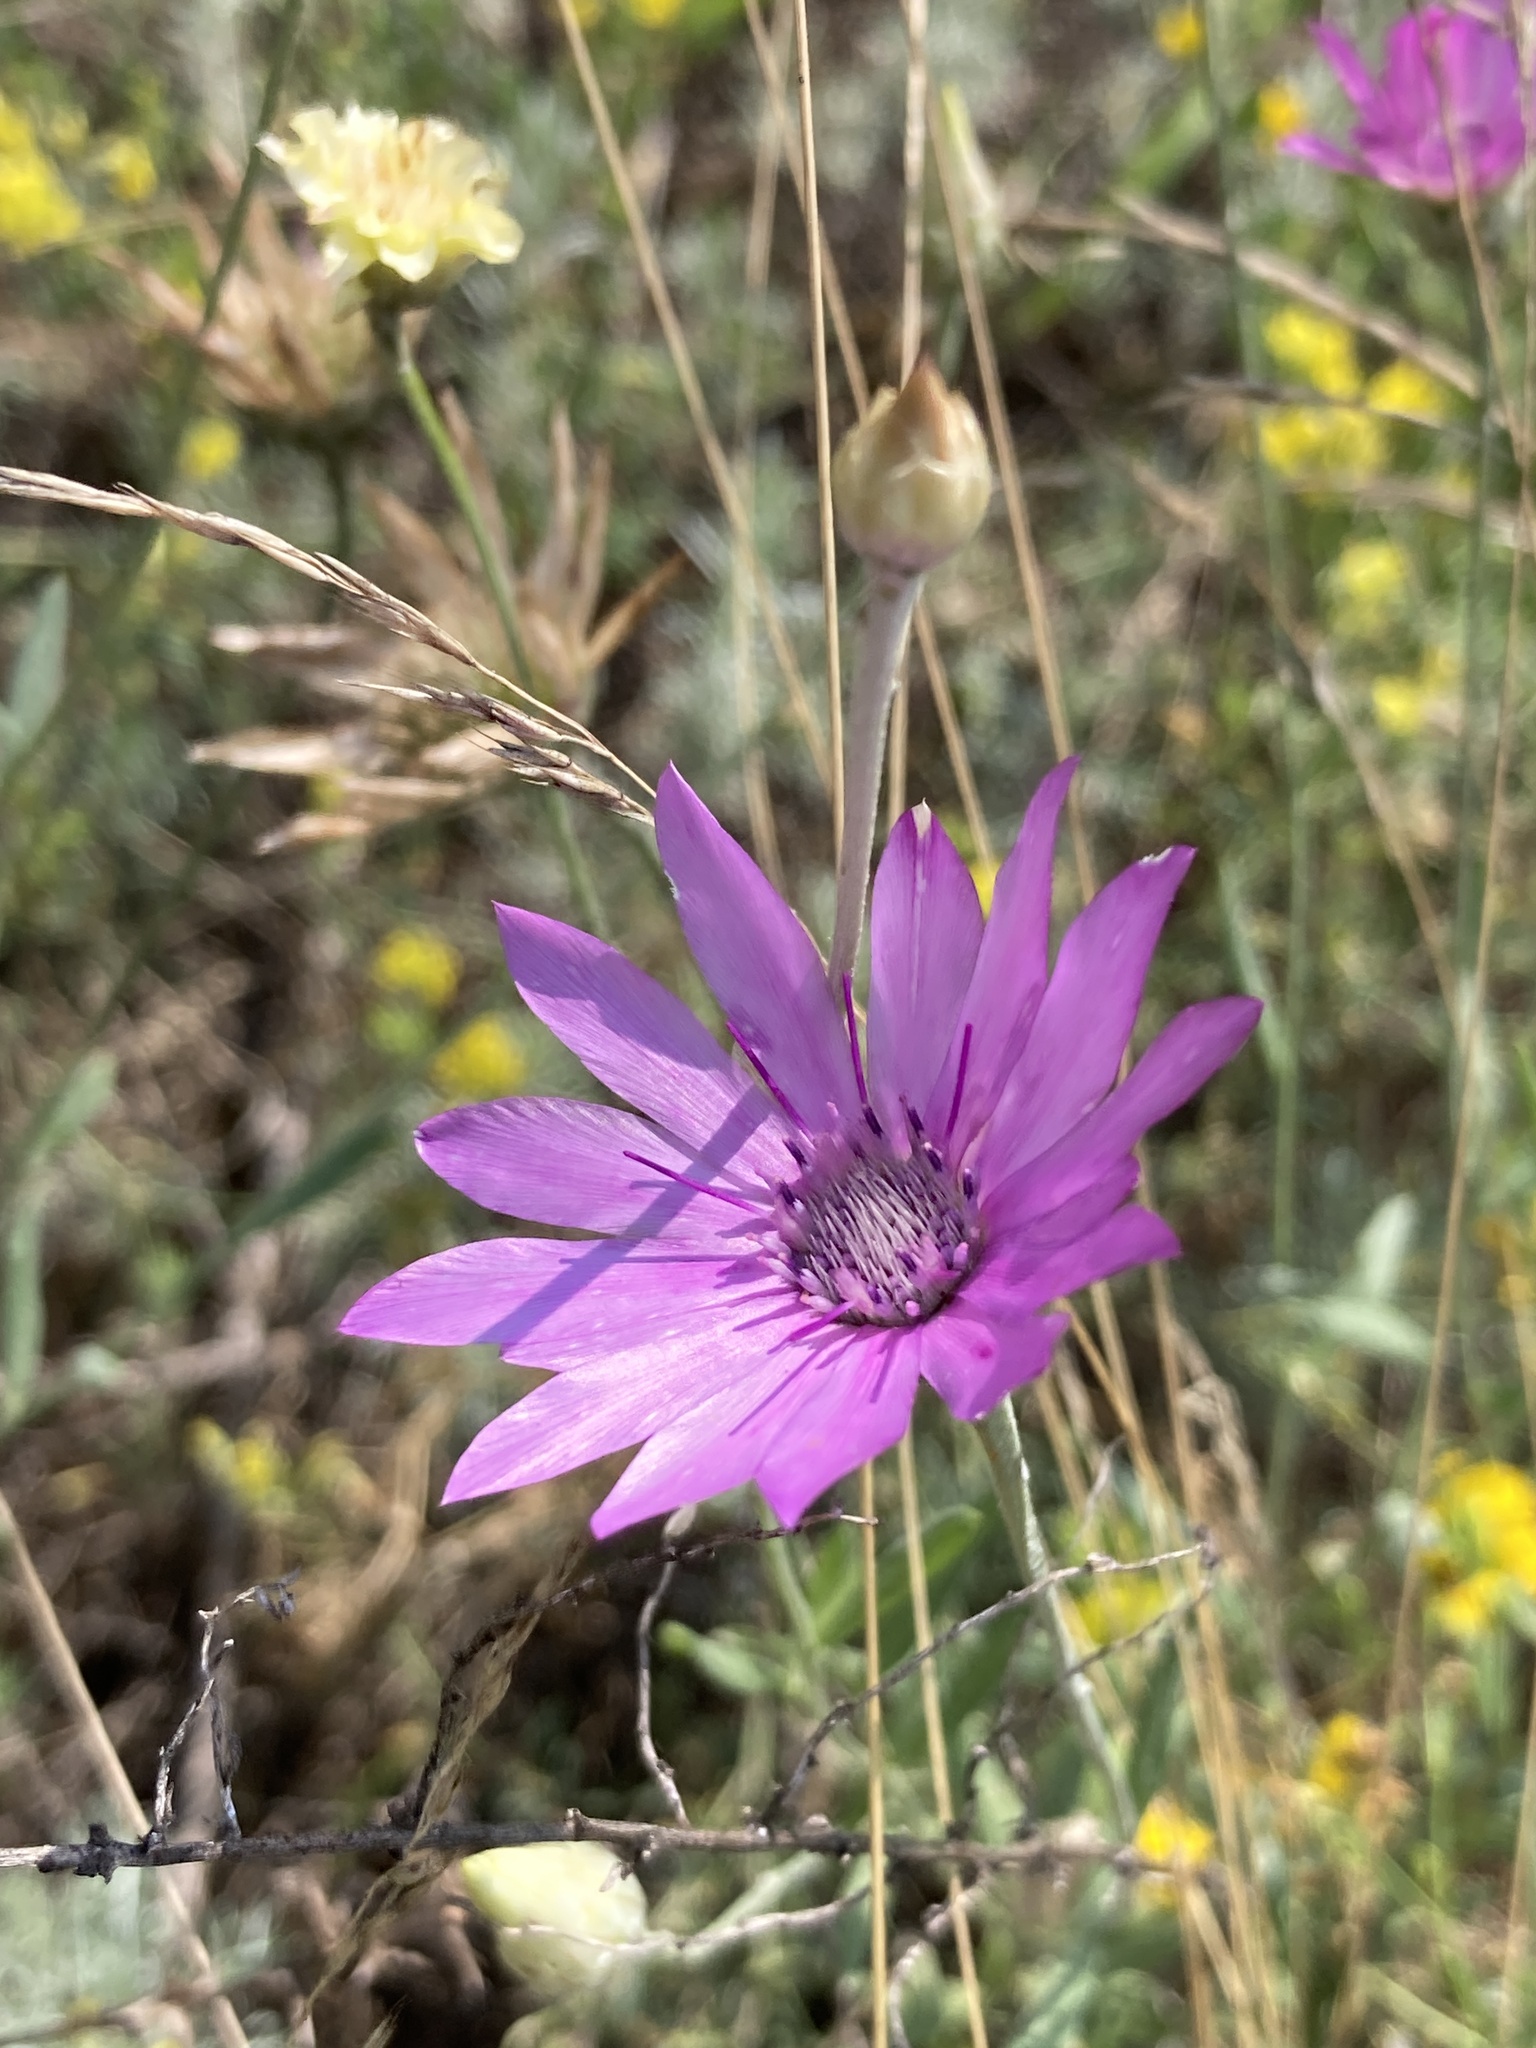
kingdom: Plantae
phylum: Tracheophyta
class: Magnoliopsida
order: Asterales
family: Asteraceae
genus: Xeranthemum
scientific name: Xeranthemum annuum
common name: Immortelle
